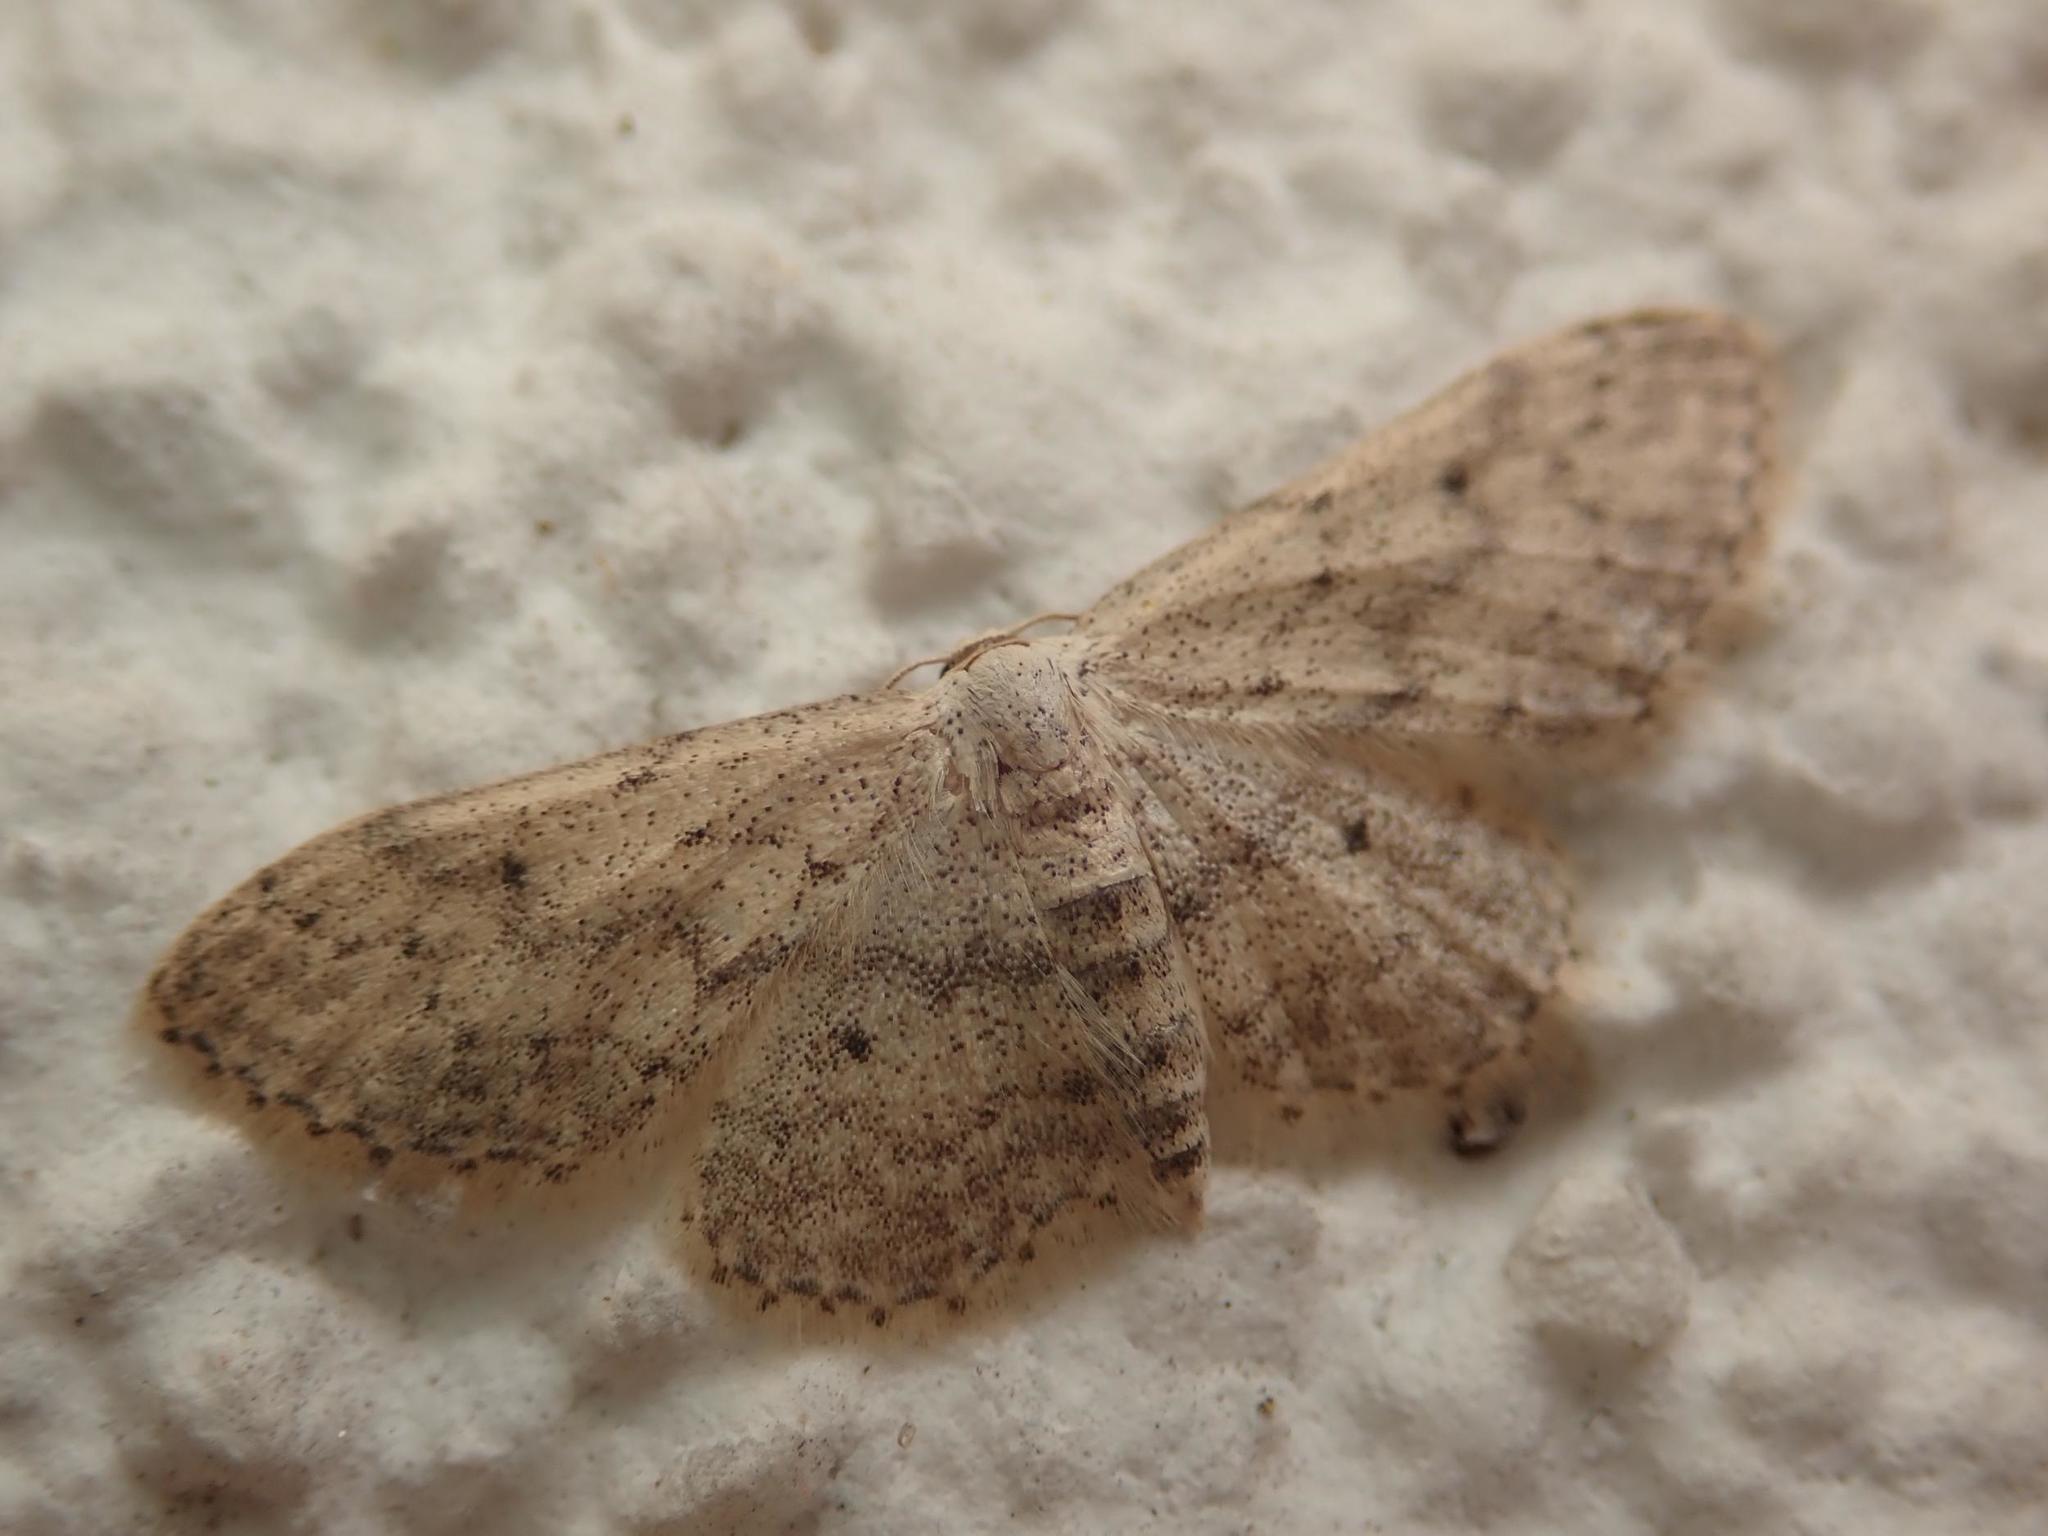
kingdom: Animalia
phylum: Arthropoda
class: Insecta
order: Lepidoptera
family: Geometridae
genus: Idaea
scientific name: Idaea seriata
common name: Small dusty wave
